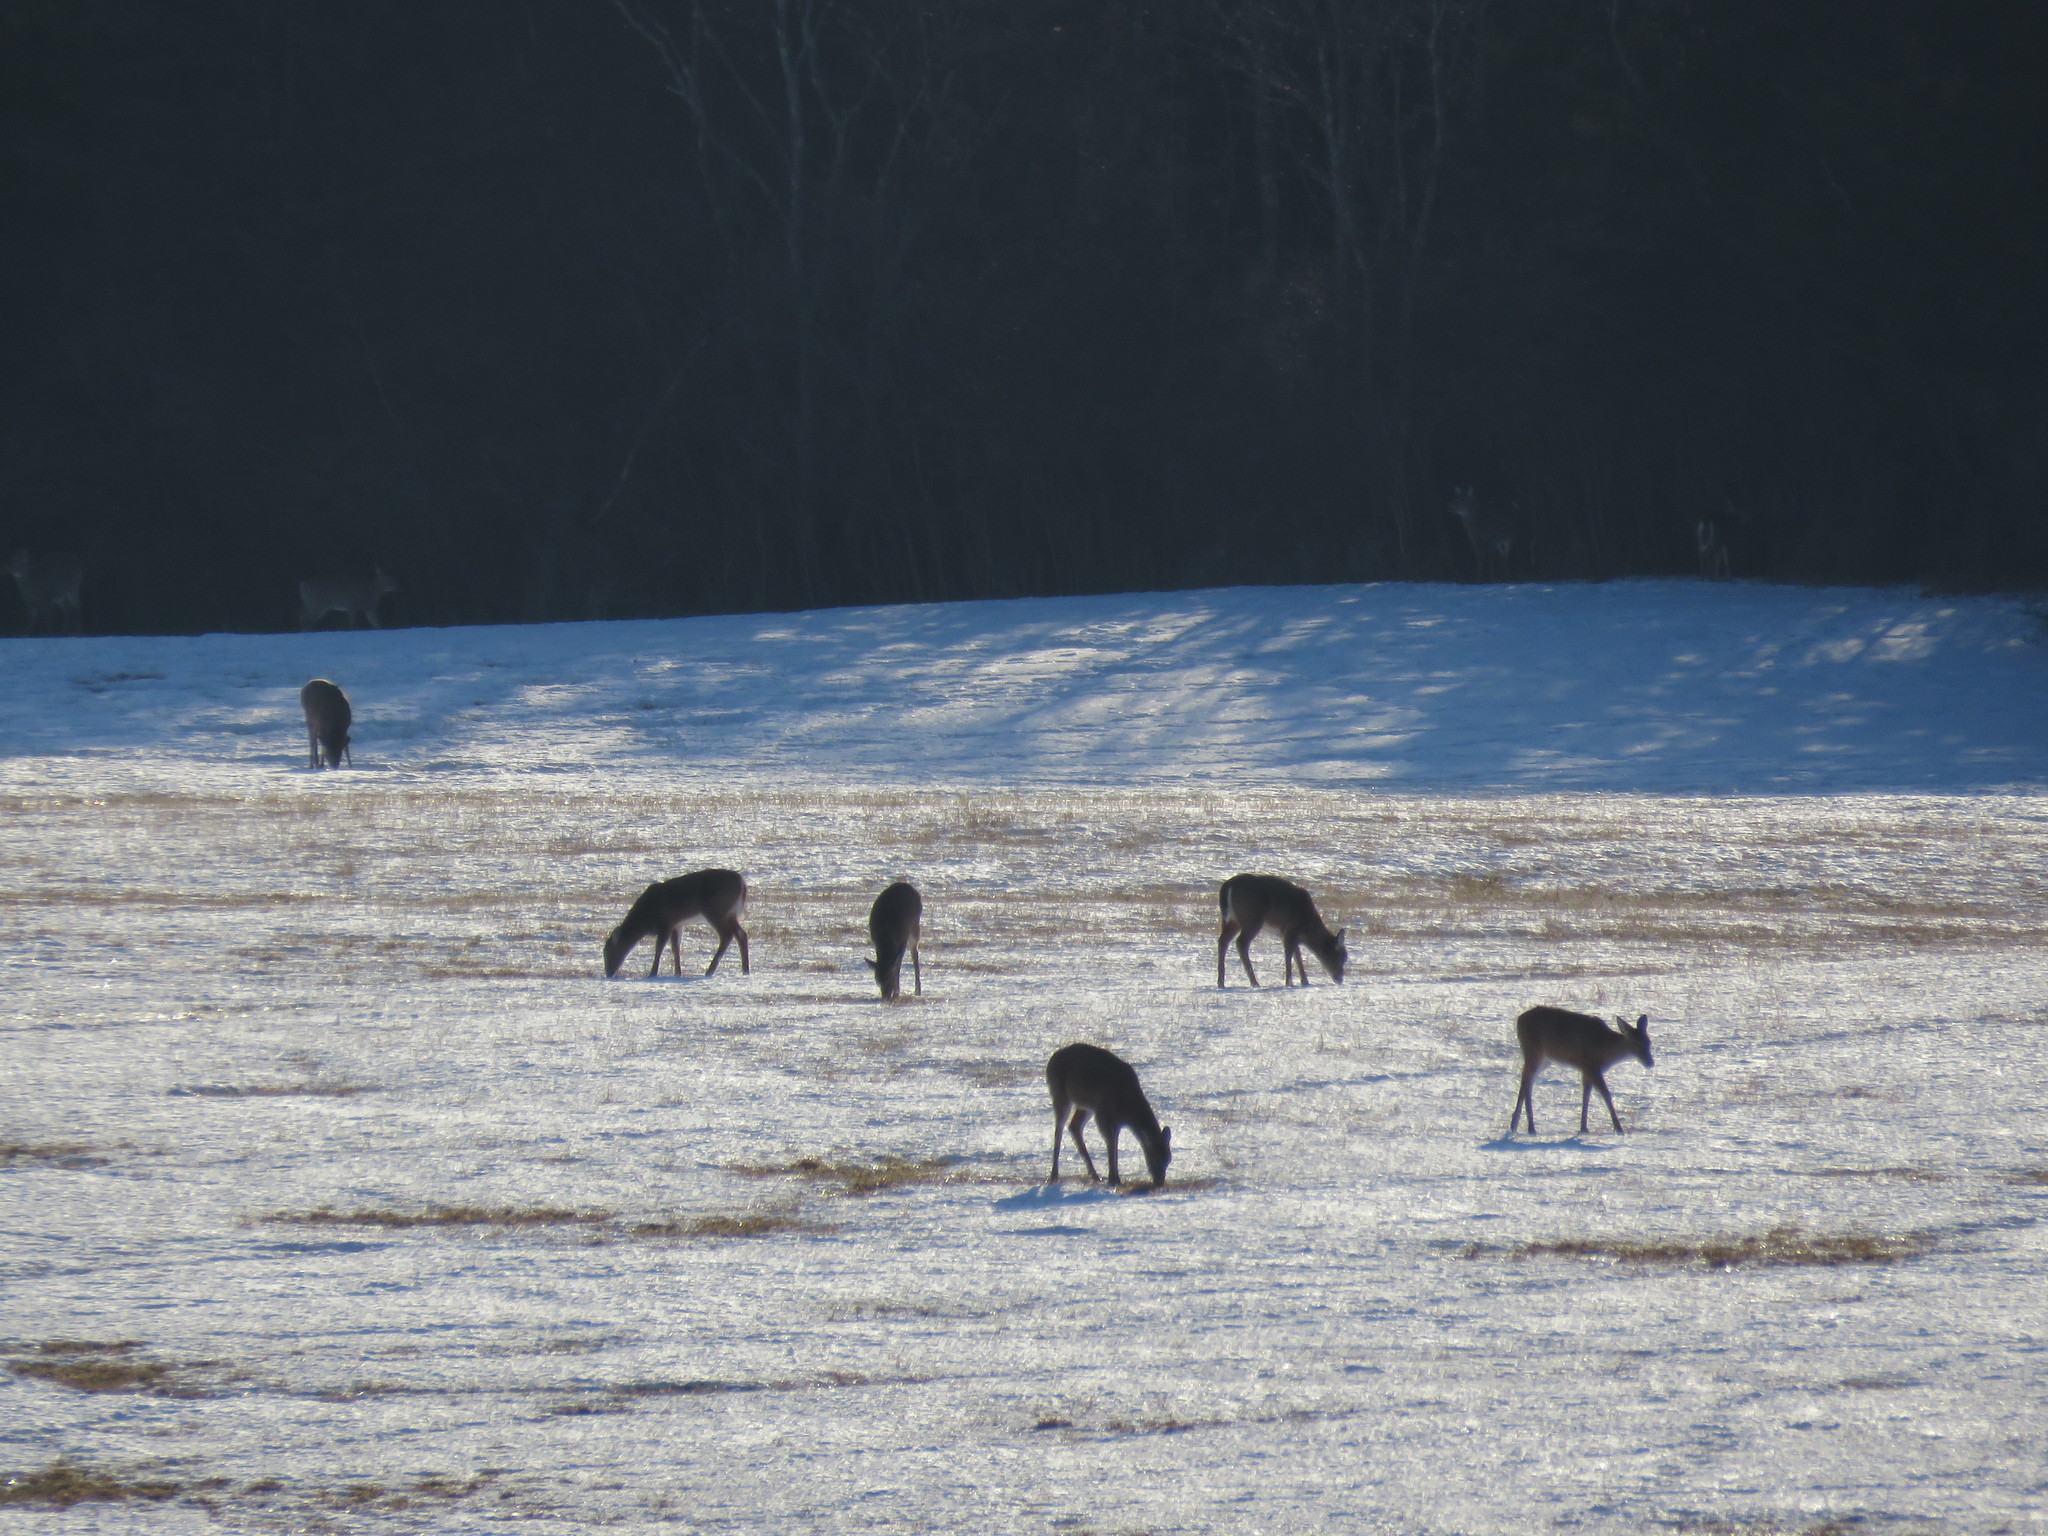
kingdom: Animalia
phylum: Chordata
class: Mammalia
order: Artiodactyla
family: Cervidae
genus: Odocoileus
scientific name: Odocoileus virginianus
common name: White-tailed deer
